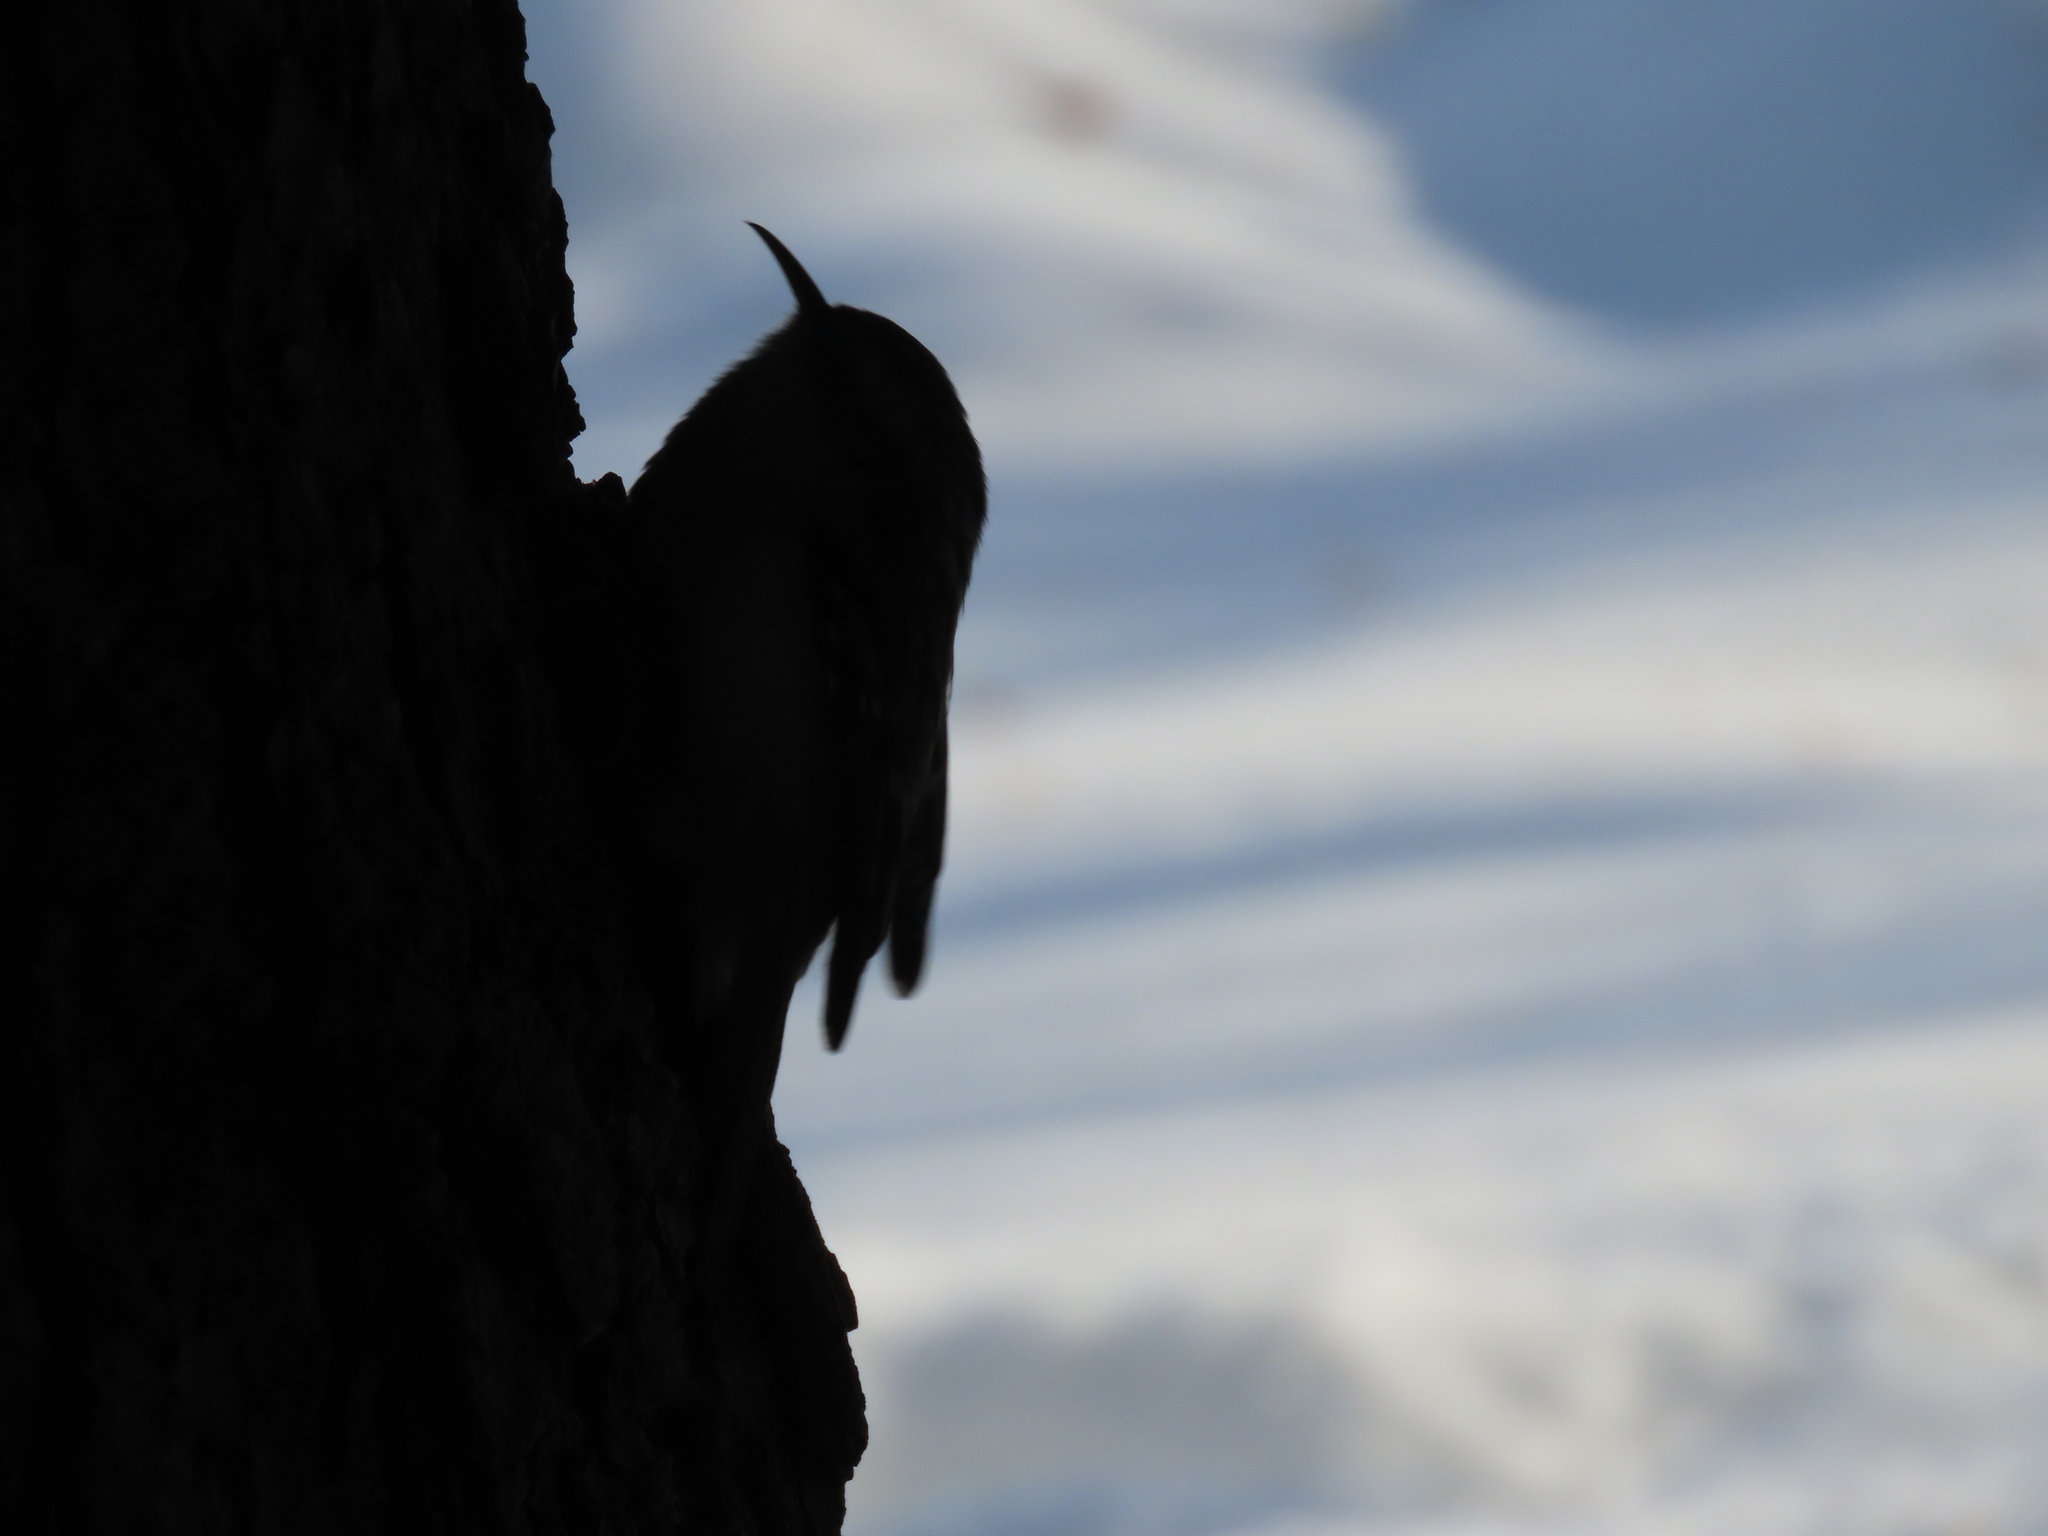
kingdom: Animalia
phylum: Chordata
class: Aves
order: Passeriformes
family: Certhiidae
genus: Certhia
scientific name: Certhia familiaris
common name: Eurasian treecreeper
